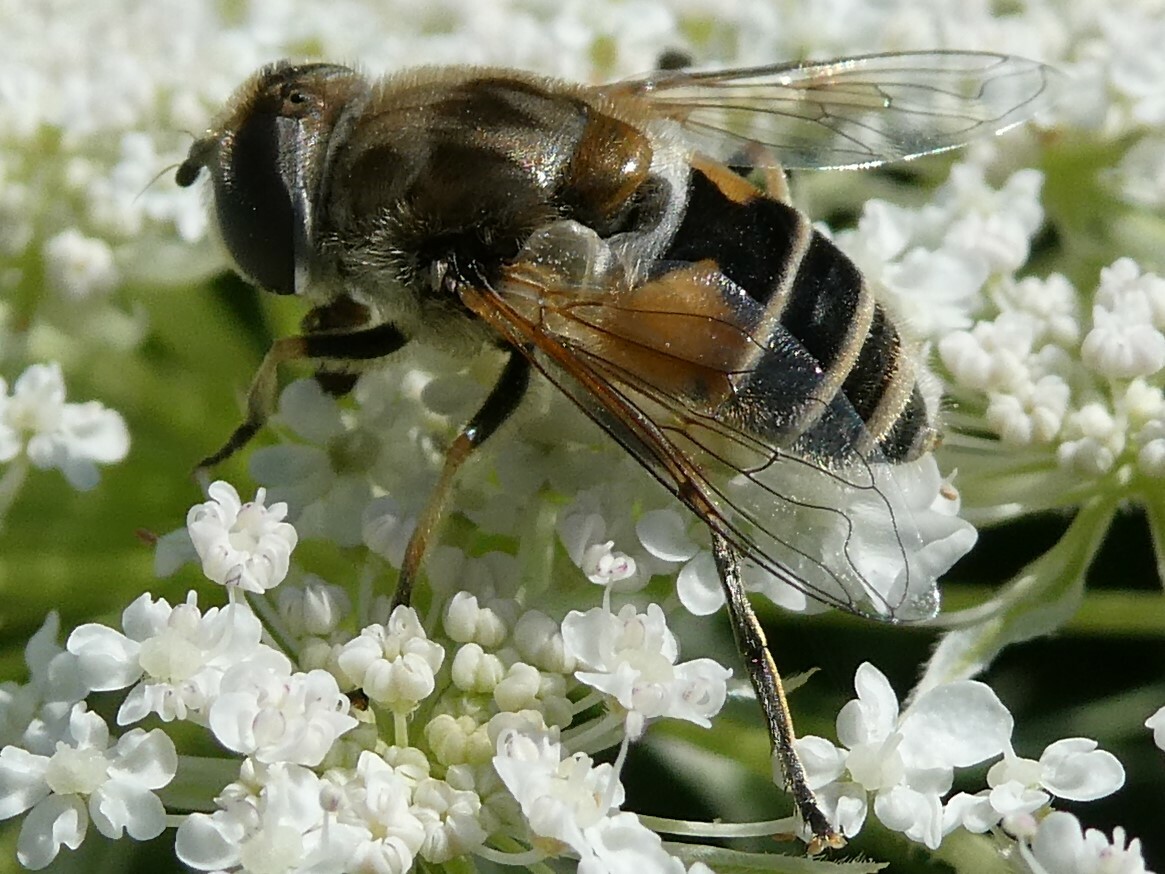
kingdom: Animalia
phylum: Arthropoda
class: Insecta
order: Diptera
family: Syrphidae
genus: Eristalis
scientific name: Eristalis arbustorum
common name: Hover fly
